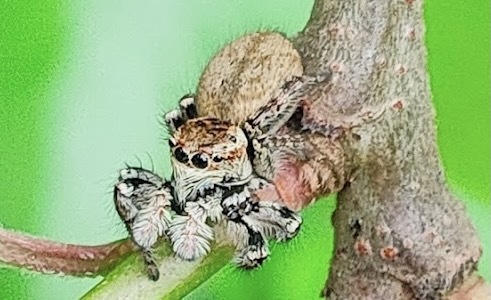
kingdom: Animalia
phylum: Arthropoda
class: Arachnida
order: Araneae
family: Salticidae
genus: Carrhotus
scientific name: Carrhotus xanthogramma
